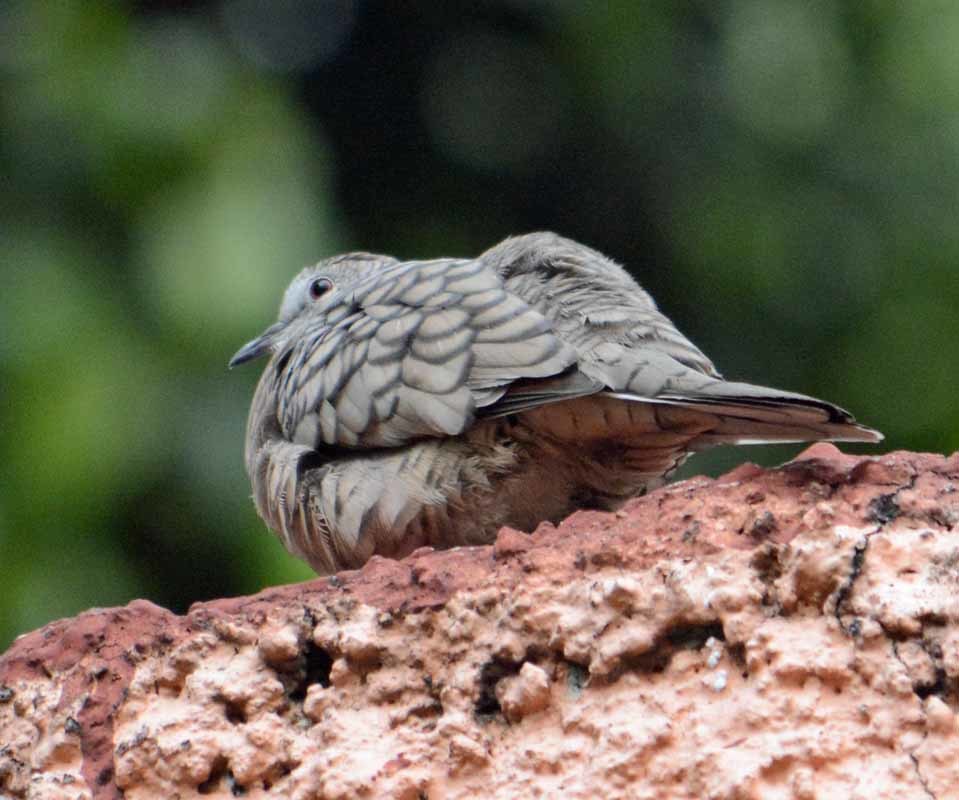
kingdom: Animalia
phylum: Chordata
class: Aves
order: Columbiformes
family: Columbidae
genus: Columbina
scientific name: Columbina inca
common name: Inca dove
